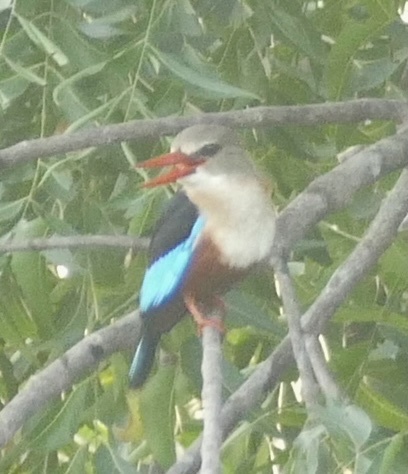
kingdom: Animalia
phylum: Chordata
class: Aves
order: Coraciiformes
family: Alcedinidae
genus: Halcyon
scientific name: Halcyon leucocephala
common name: Grey-headed kingfisher
